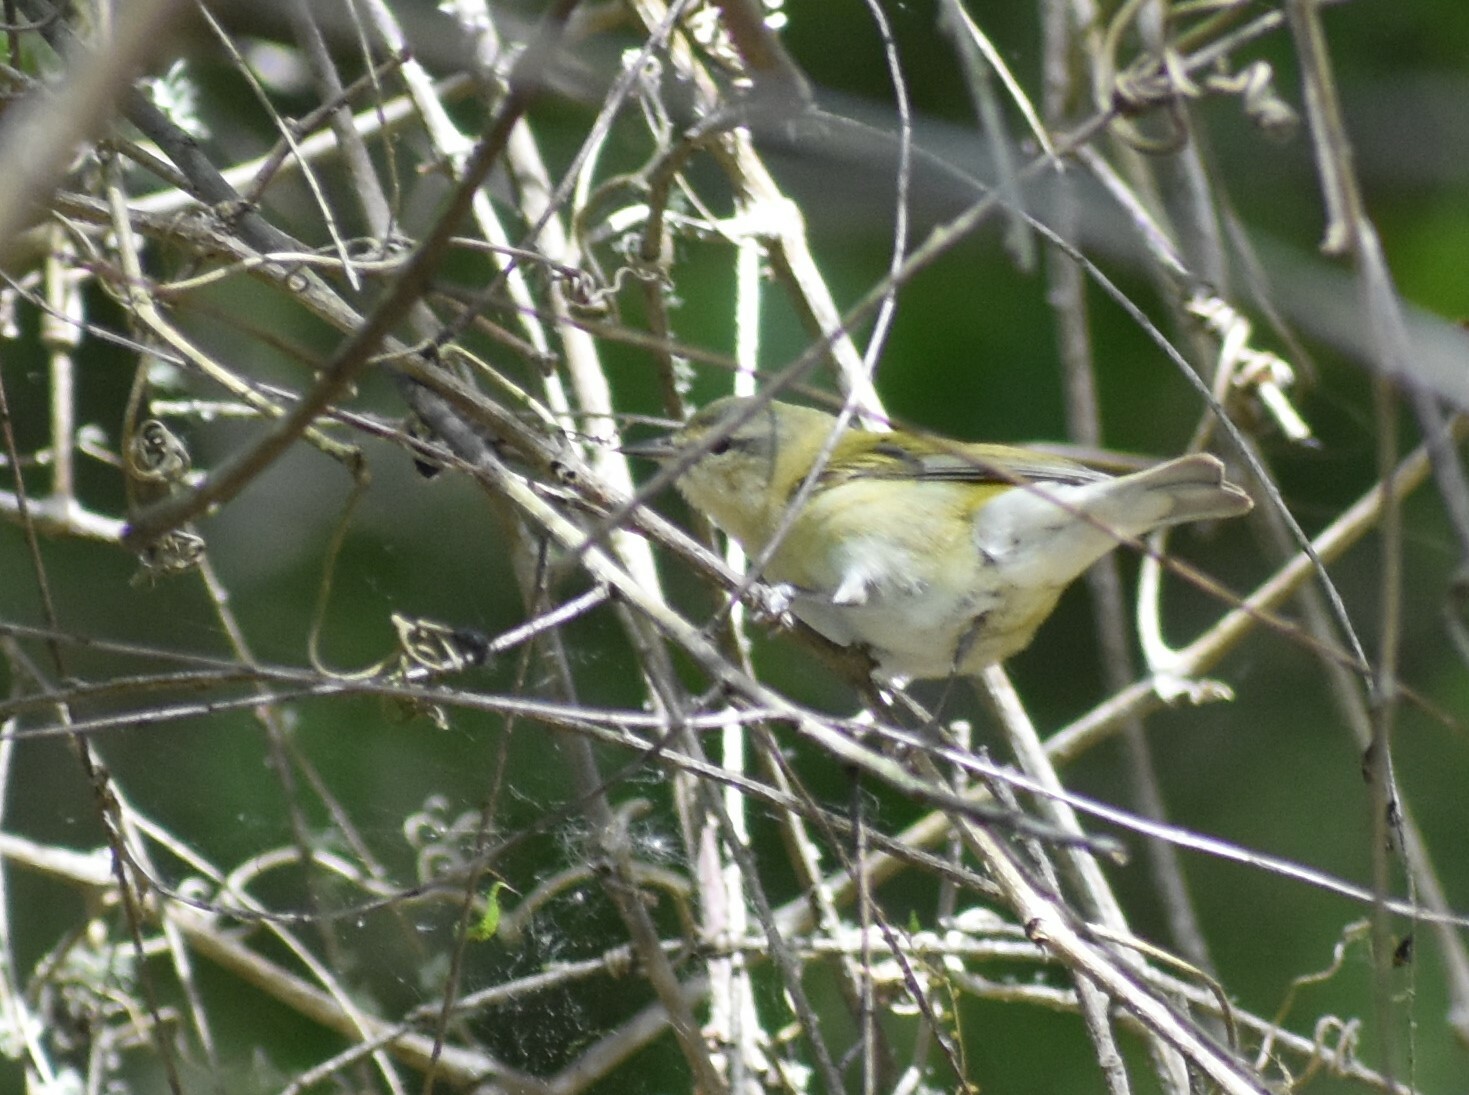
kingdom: Animalia
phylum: Chordata
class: Aves
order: Passeriformes
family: Parulidae
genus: Leiothlypis
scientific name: Leiothlypis peregrina
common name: Tennessee warbler
